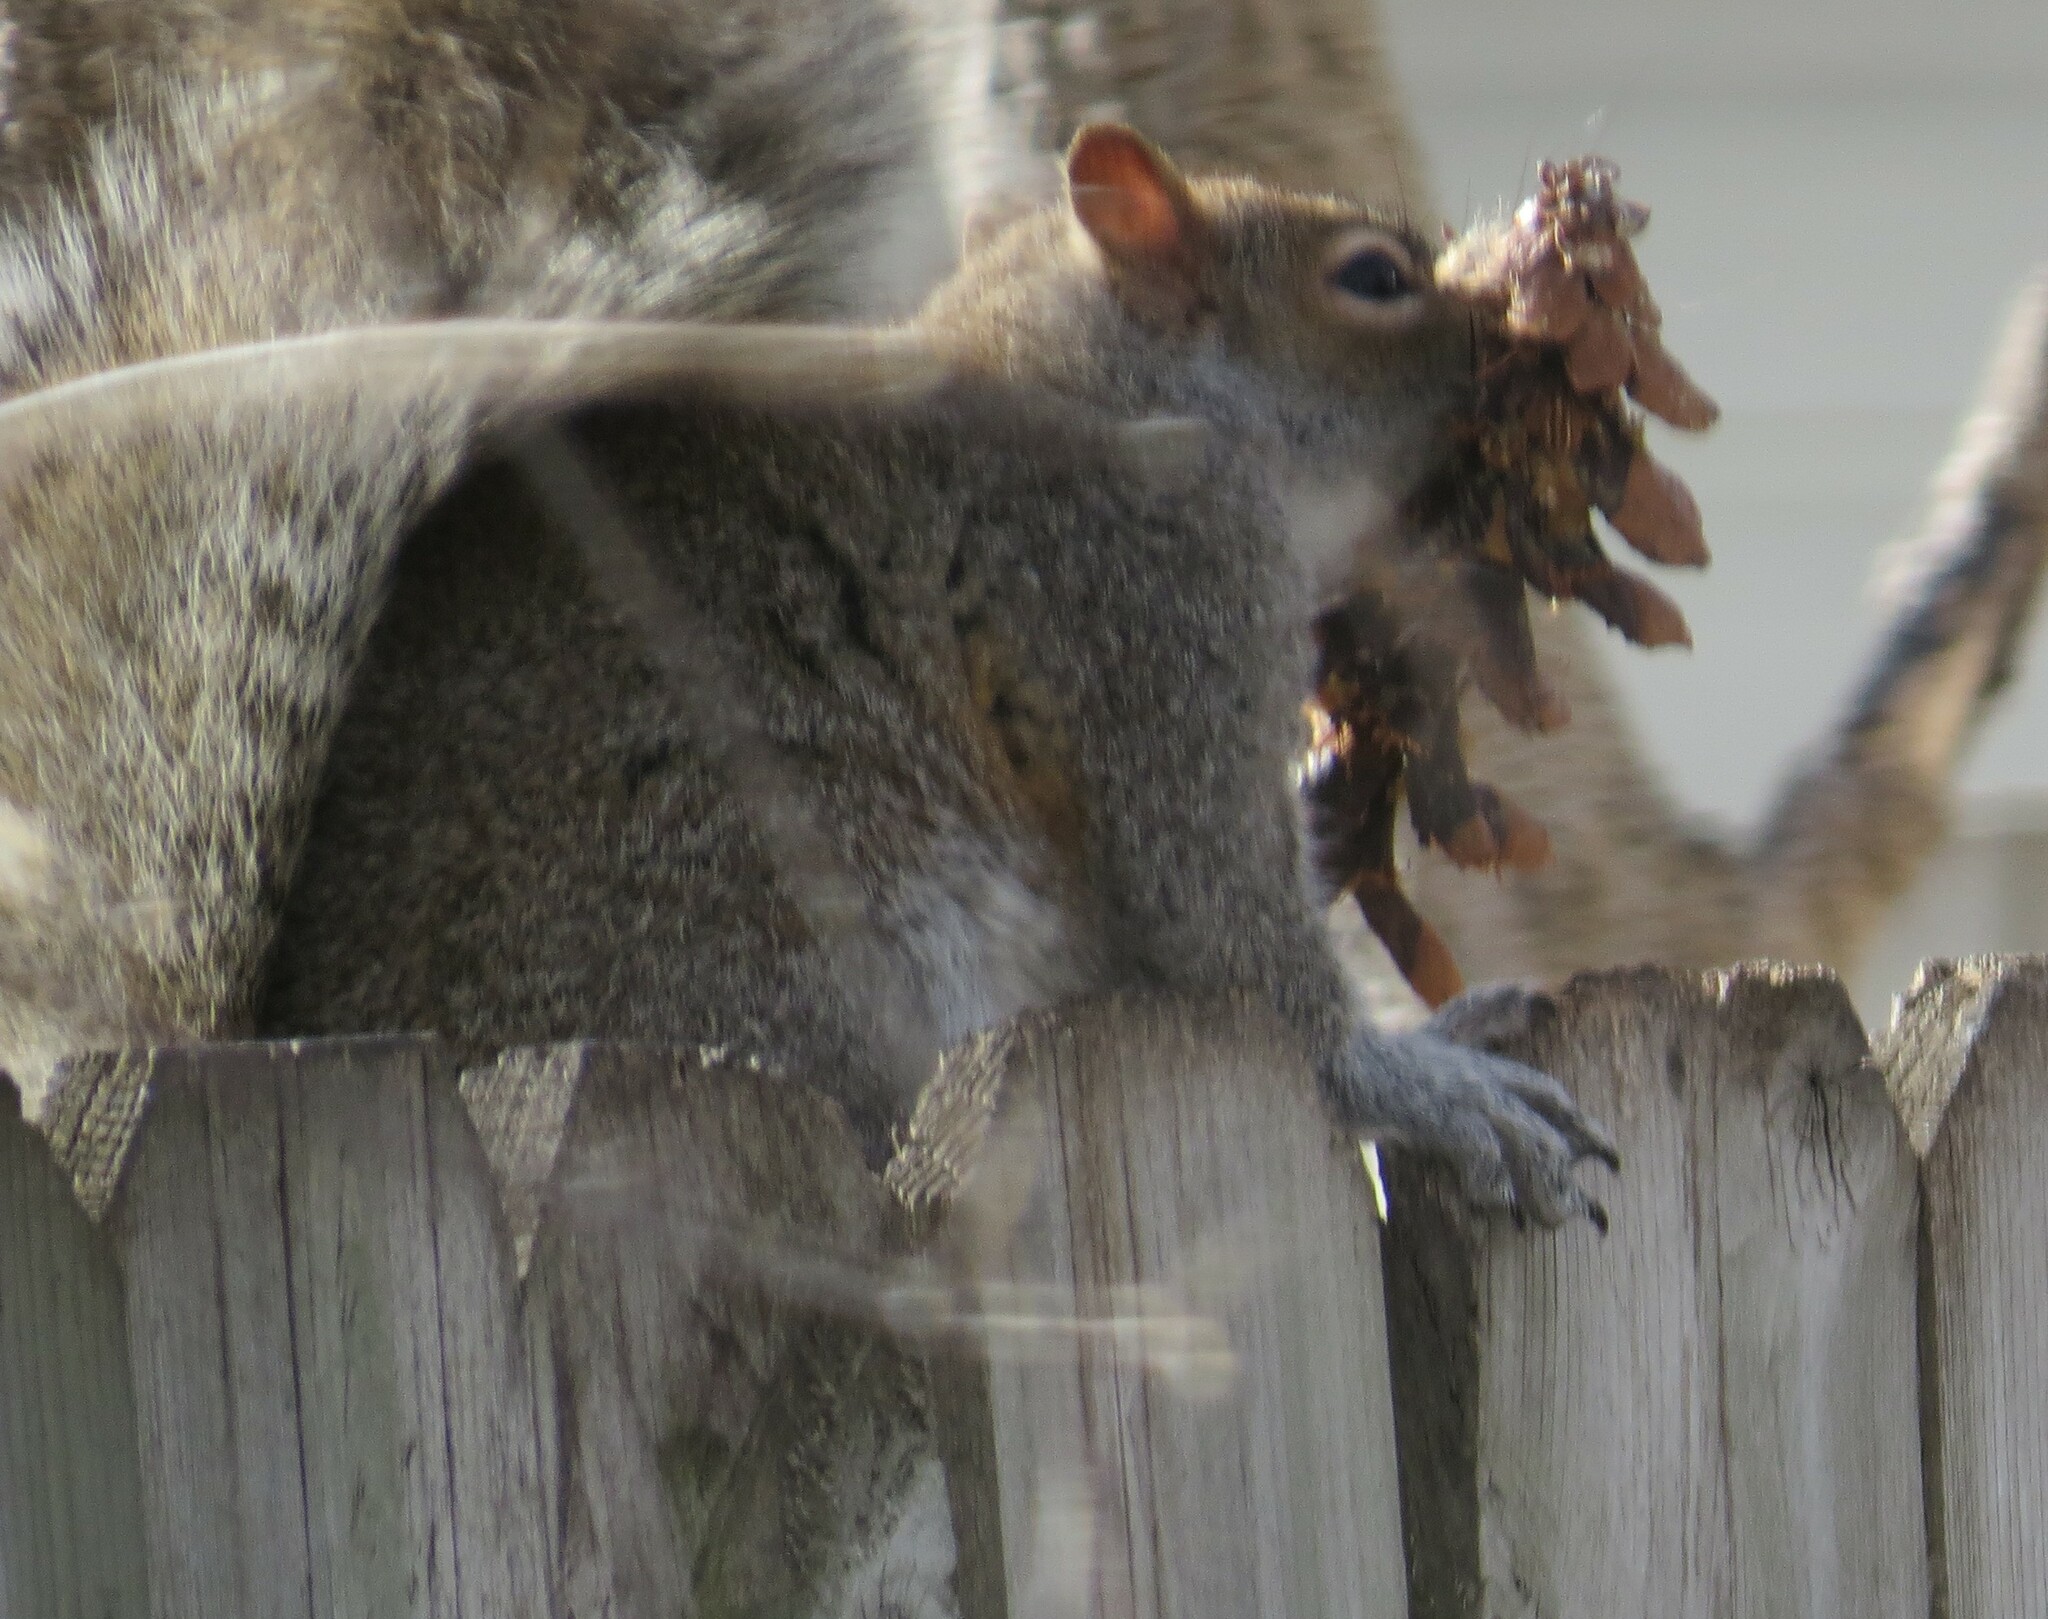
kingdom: Animalia
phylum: Chordata
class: Mammalia
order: Rodentia
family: Sciuridae
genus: Sciurus
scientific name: Sciurus carolinensis
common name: Eastern gray squirrel
